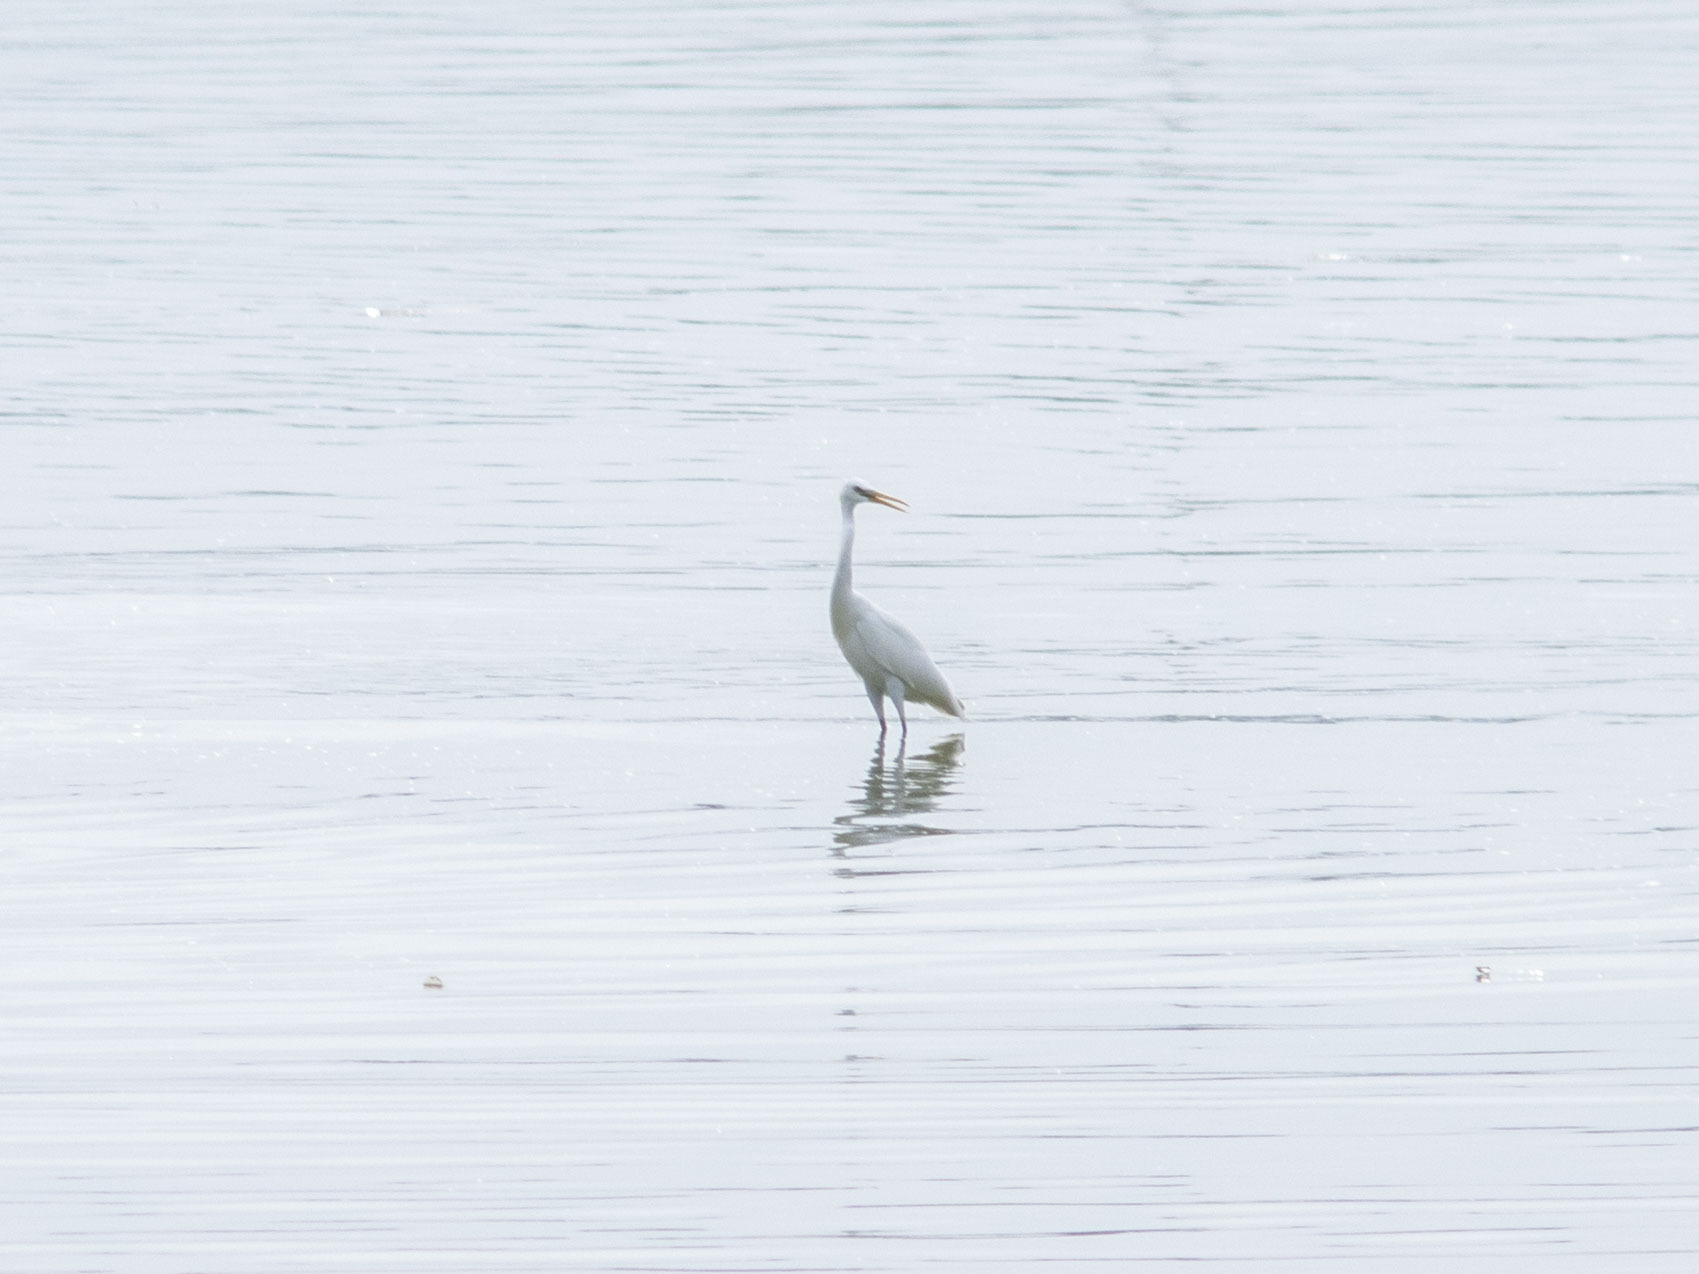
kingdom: Animalia
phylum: Chordata
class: Aves
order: Pelecaniformes
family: Ardeidae
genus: Egretta
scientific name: Egretta eulophotes
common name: Chinese egret
